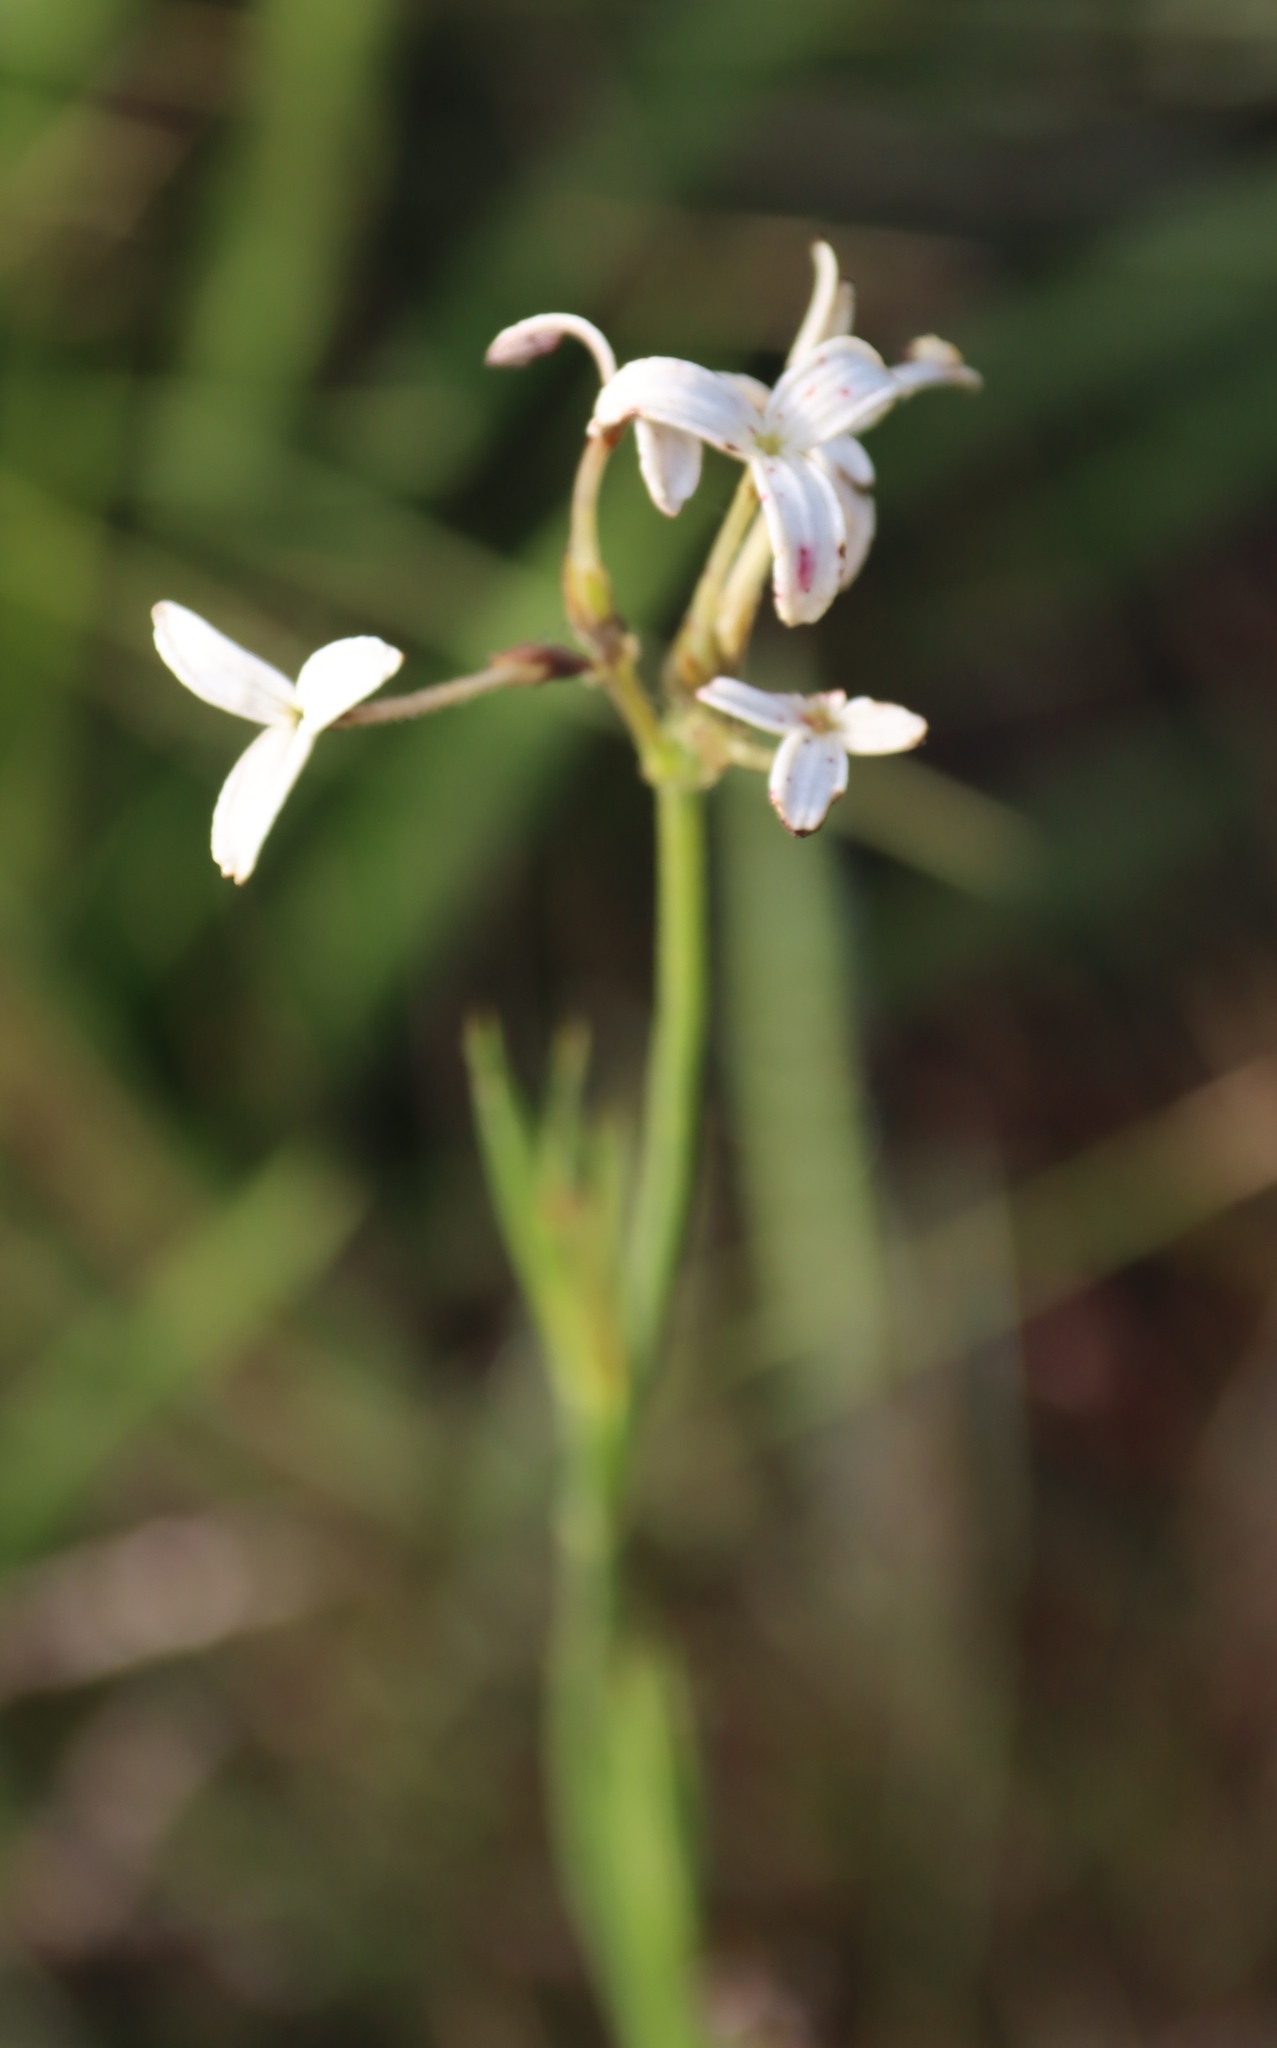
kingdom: Plantae
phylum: Tracheophyta
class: Magnoliopsida
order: Gentianales
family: Rubiaceae
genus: Kohautia
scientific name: Kohautia amatymbica
